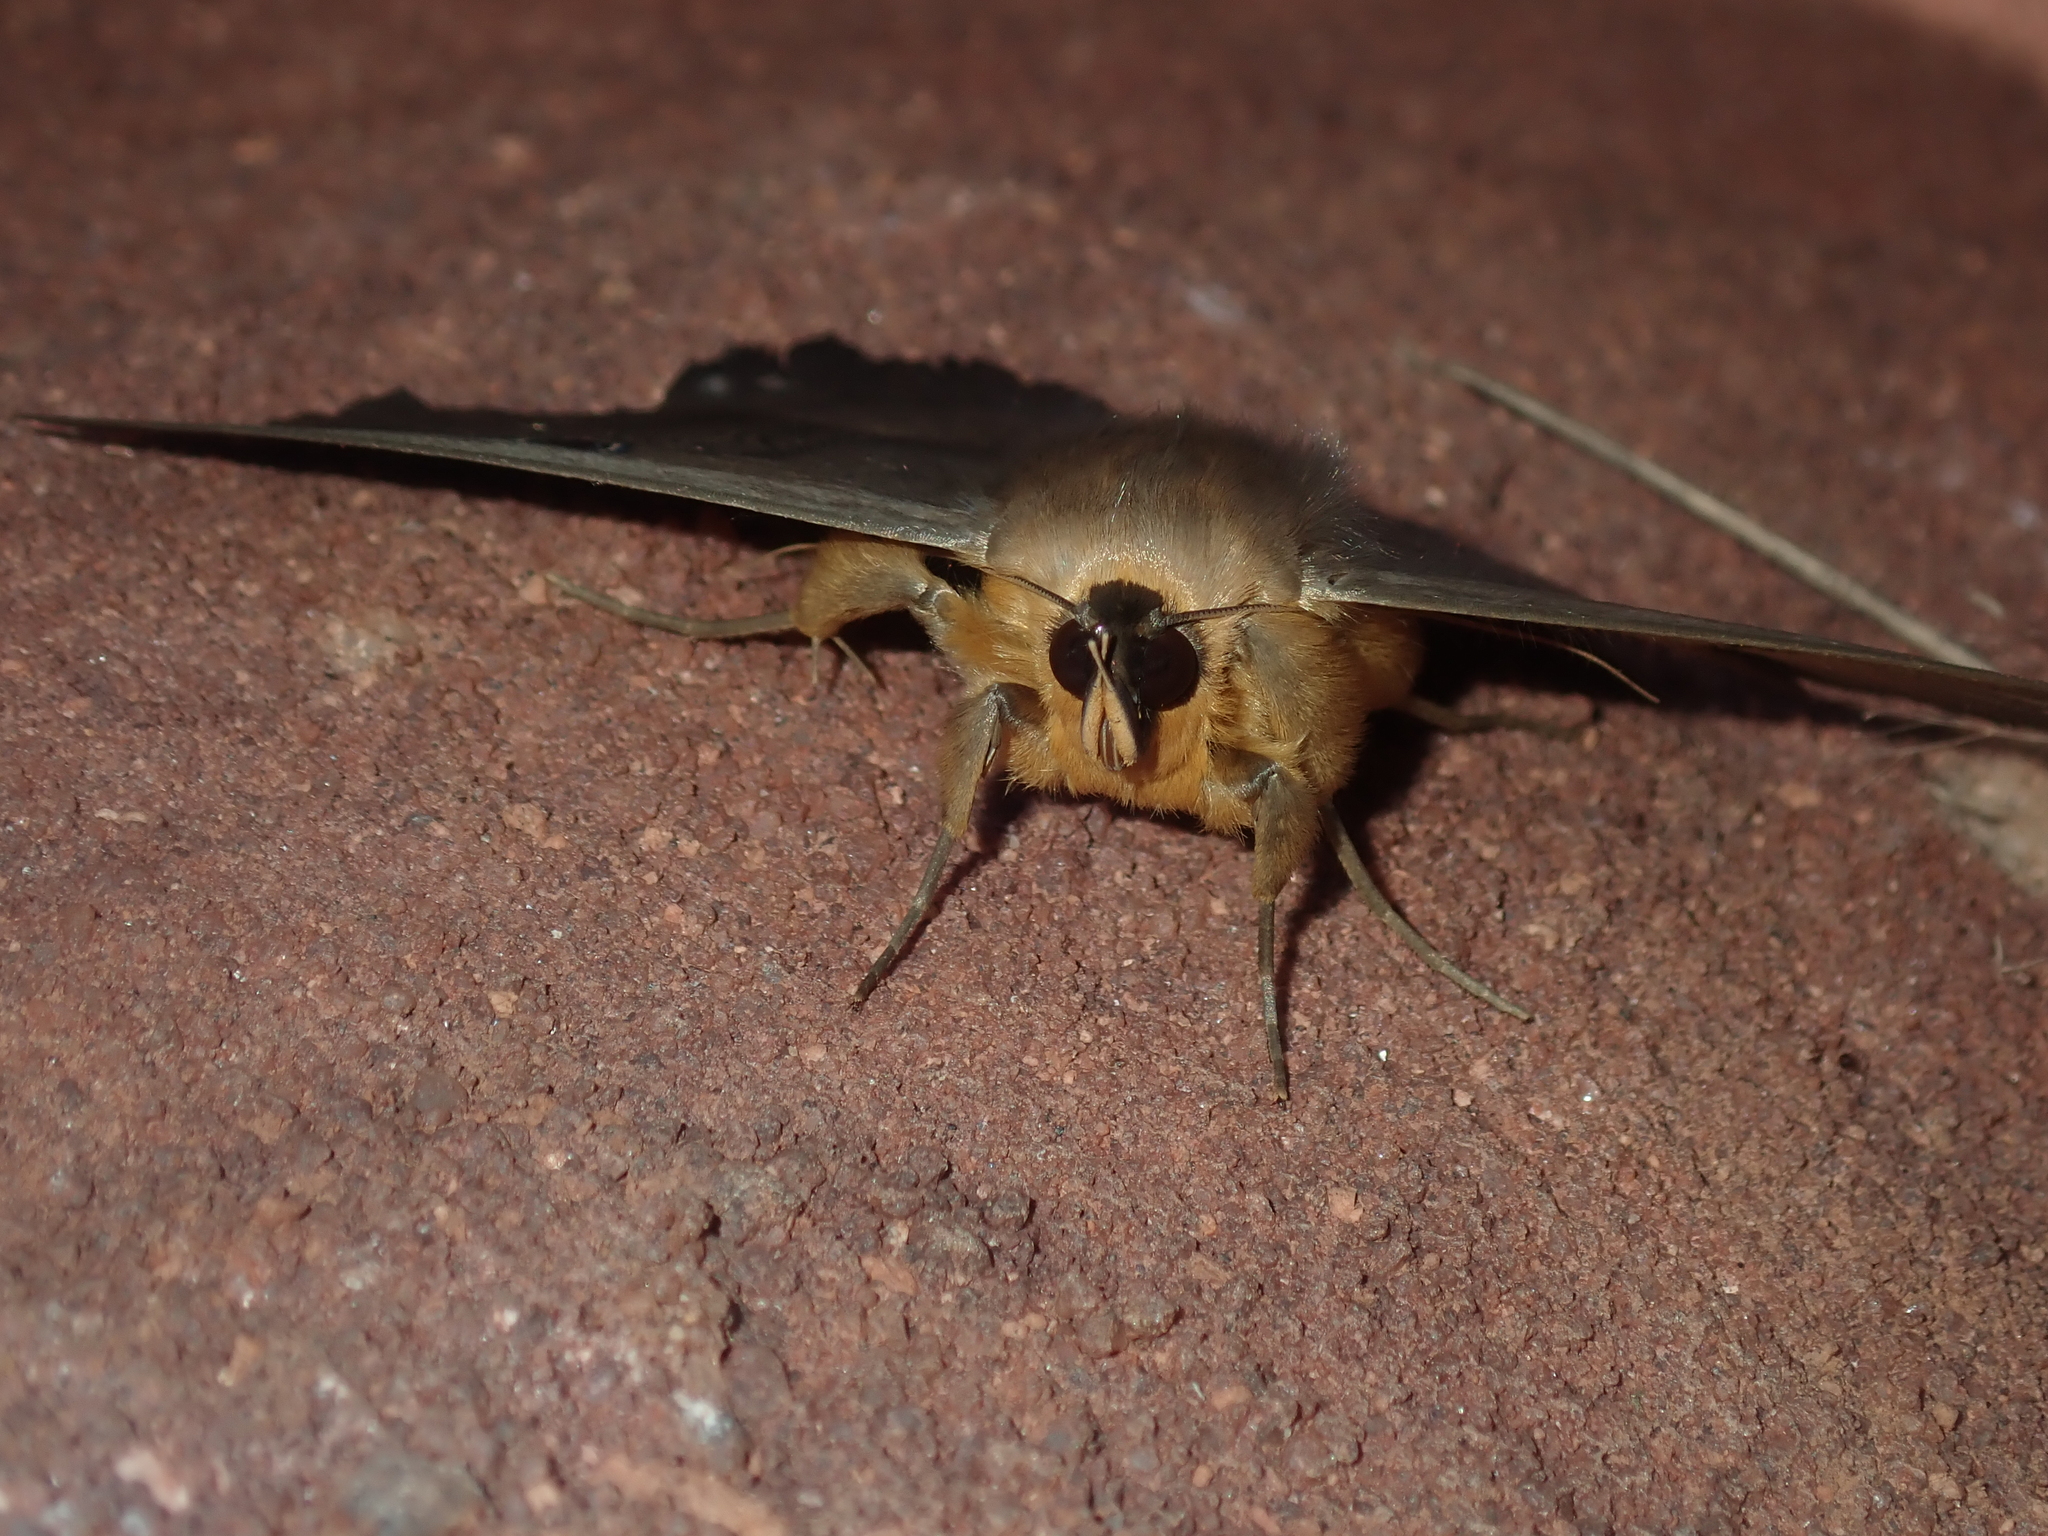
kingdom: Animalia
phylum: Arthropoda
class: Insecta
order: Lepidoptera
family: Erebidae
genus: Dasypodia
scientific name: Dasypodia selenophora
